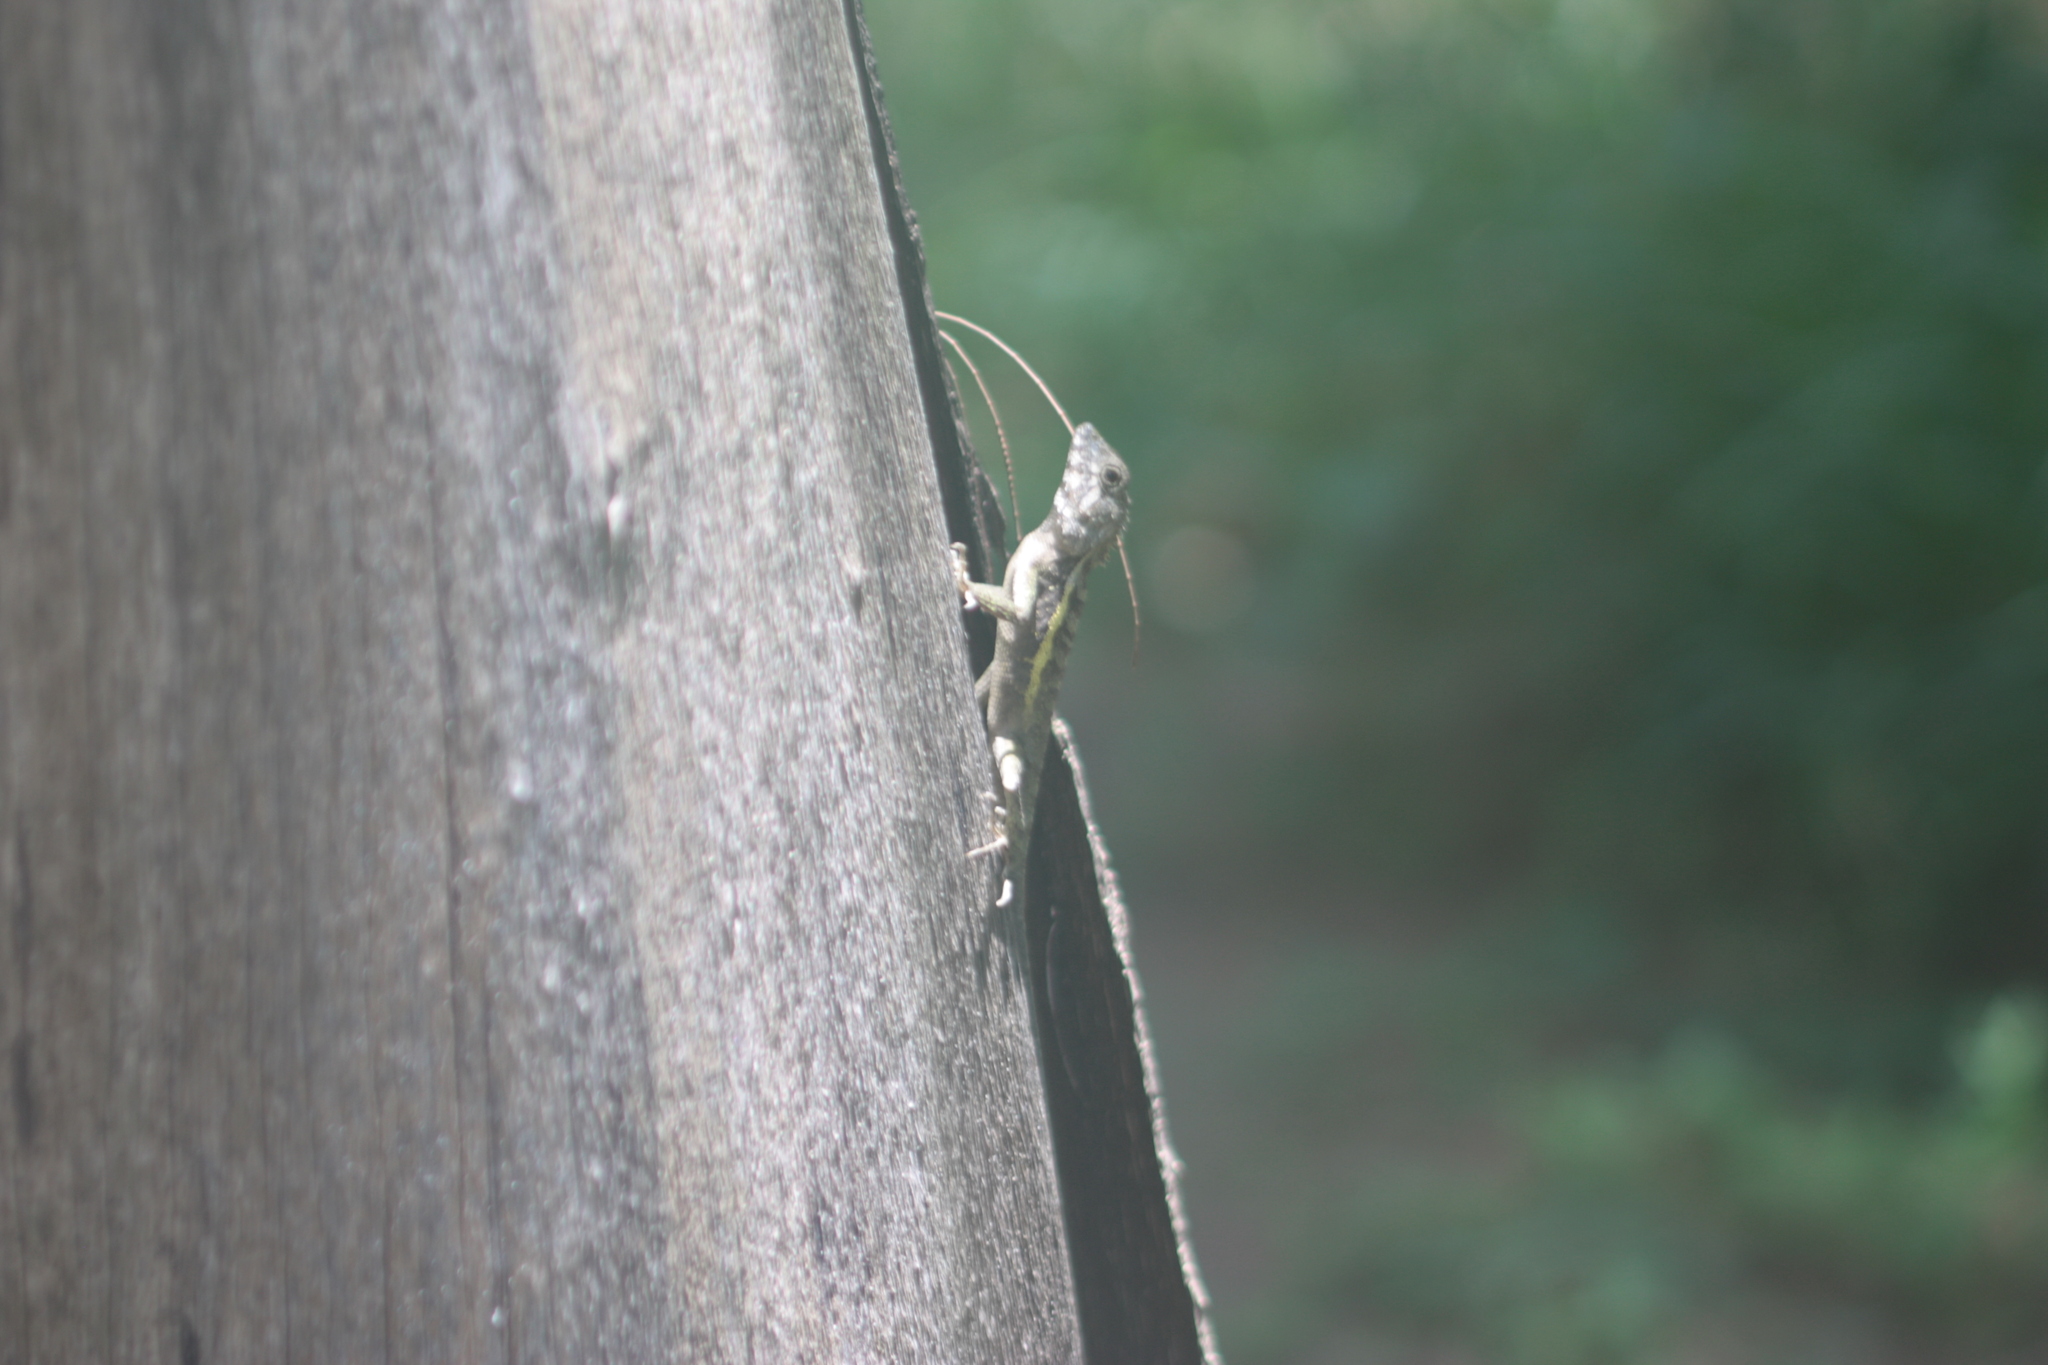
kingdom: Animalia
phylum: Chordata
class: Squamata
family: Agamidae
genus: Diploderma
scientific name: Diploderma swinhonis
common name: Taiwan japalure
